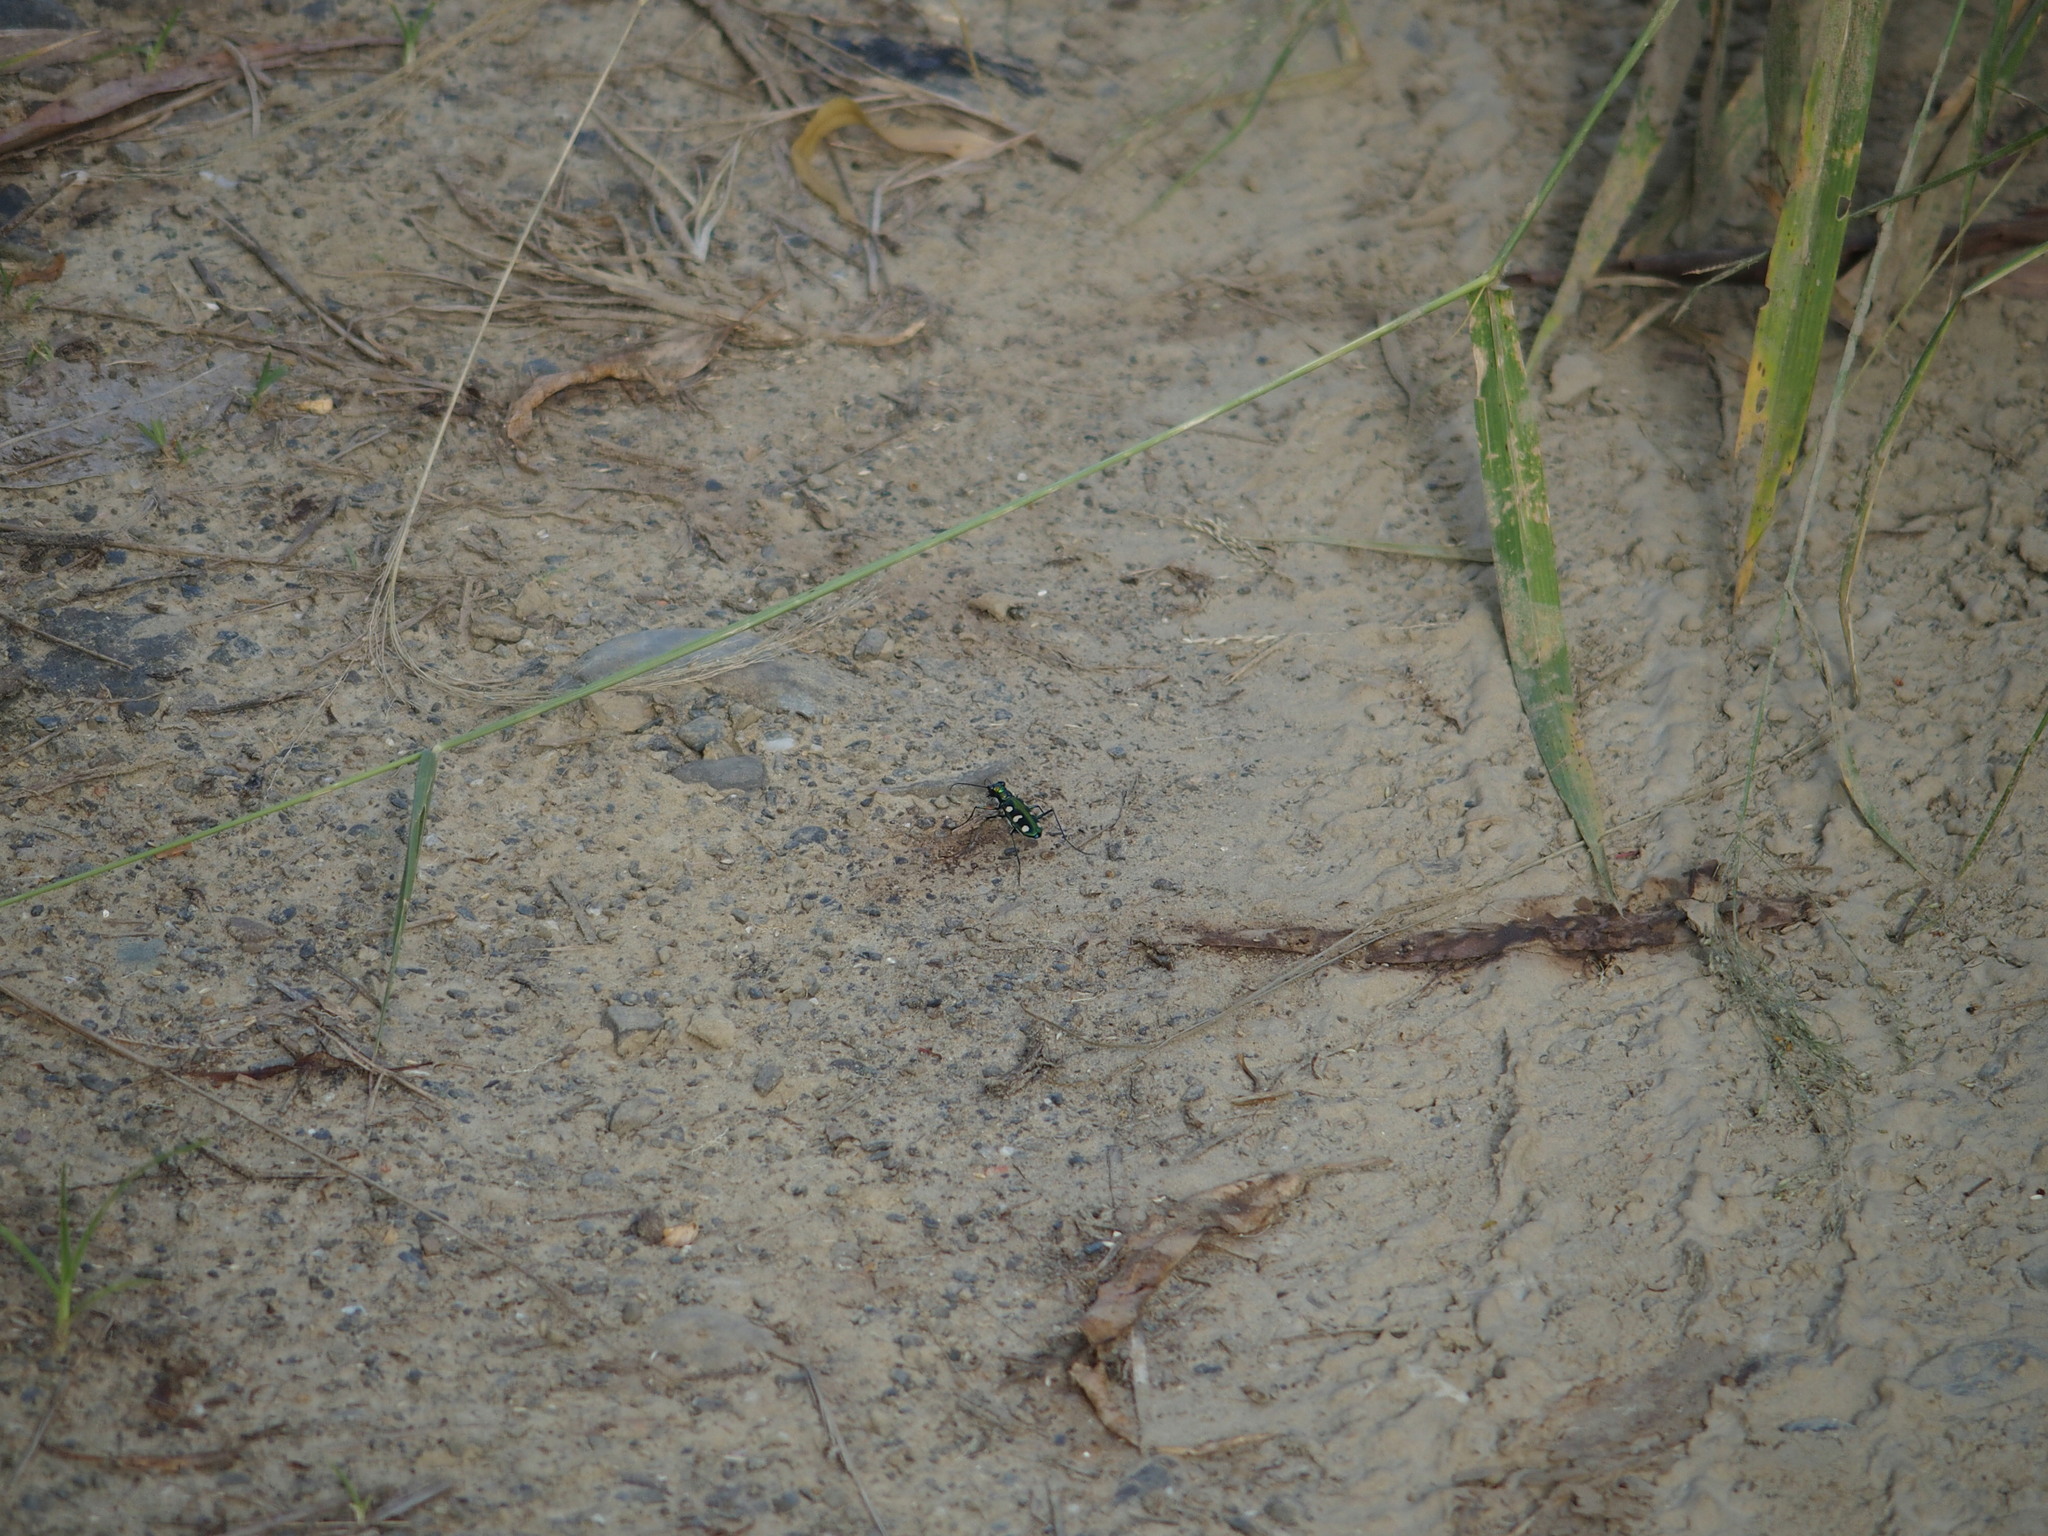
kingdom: Animalia
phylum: Arthropoda
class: Insecta
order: Coleoptera
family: Carabidae
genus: Cicindela
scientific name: Cicindela batesi
